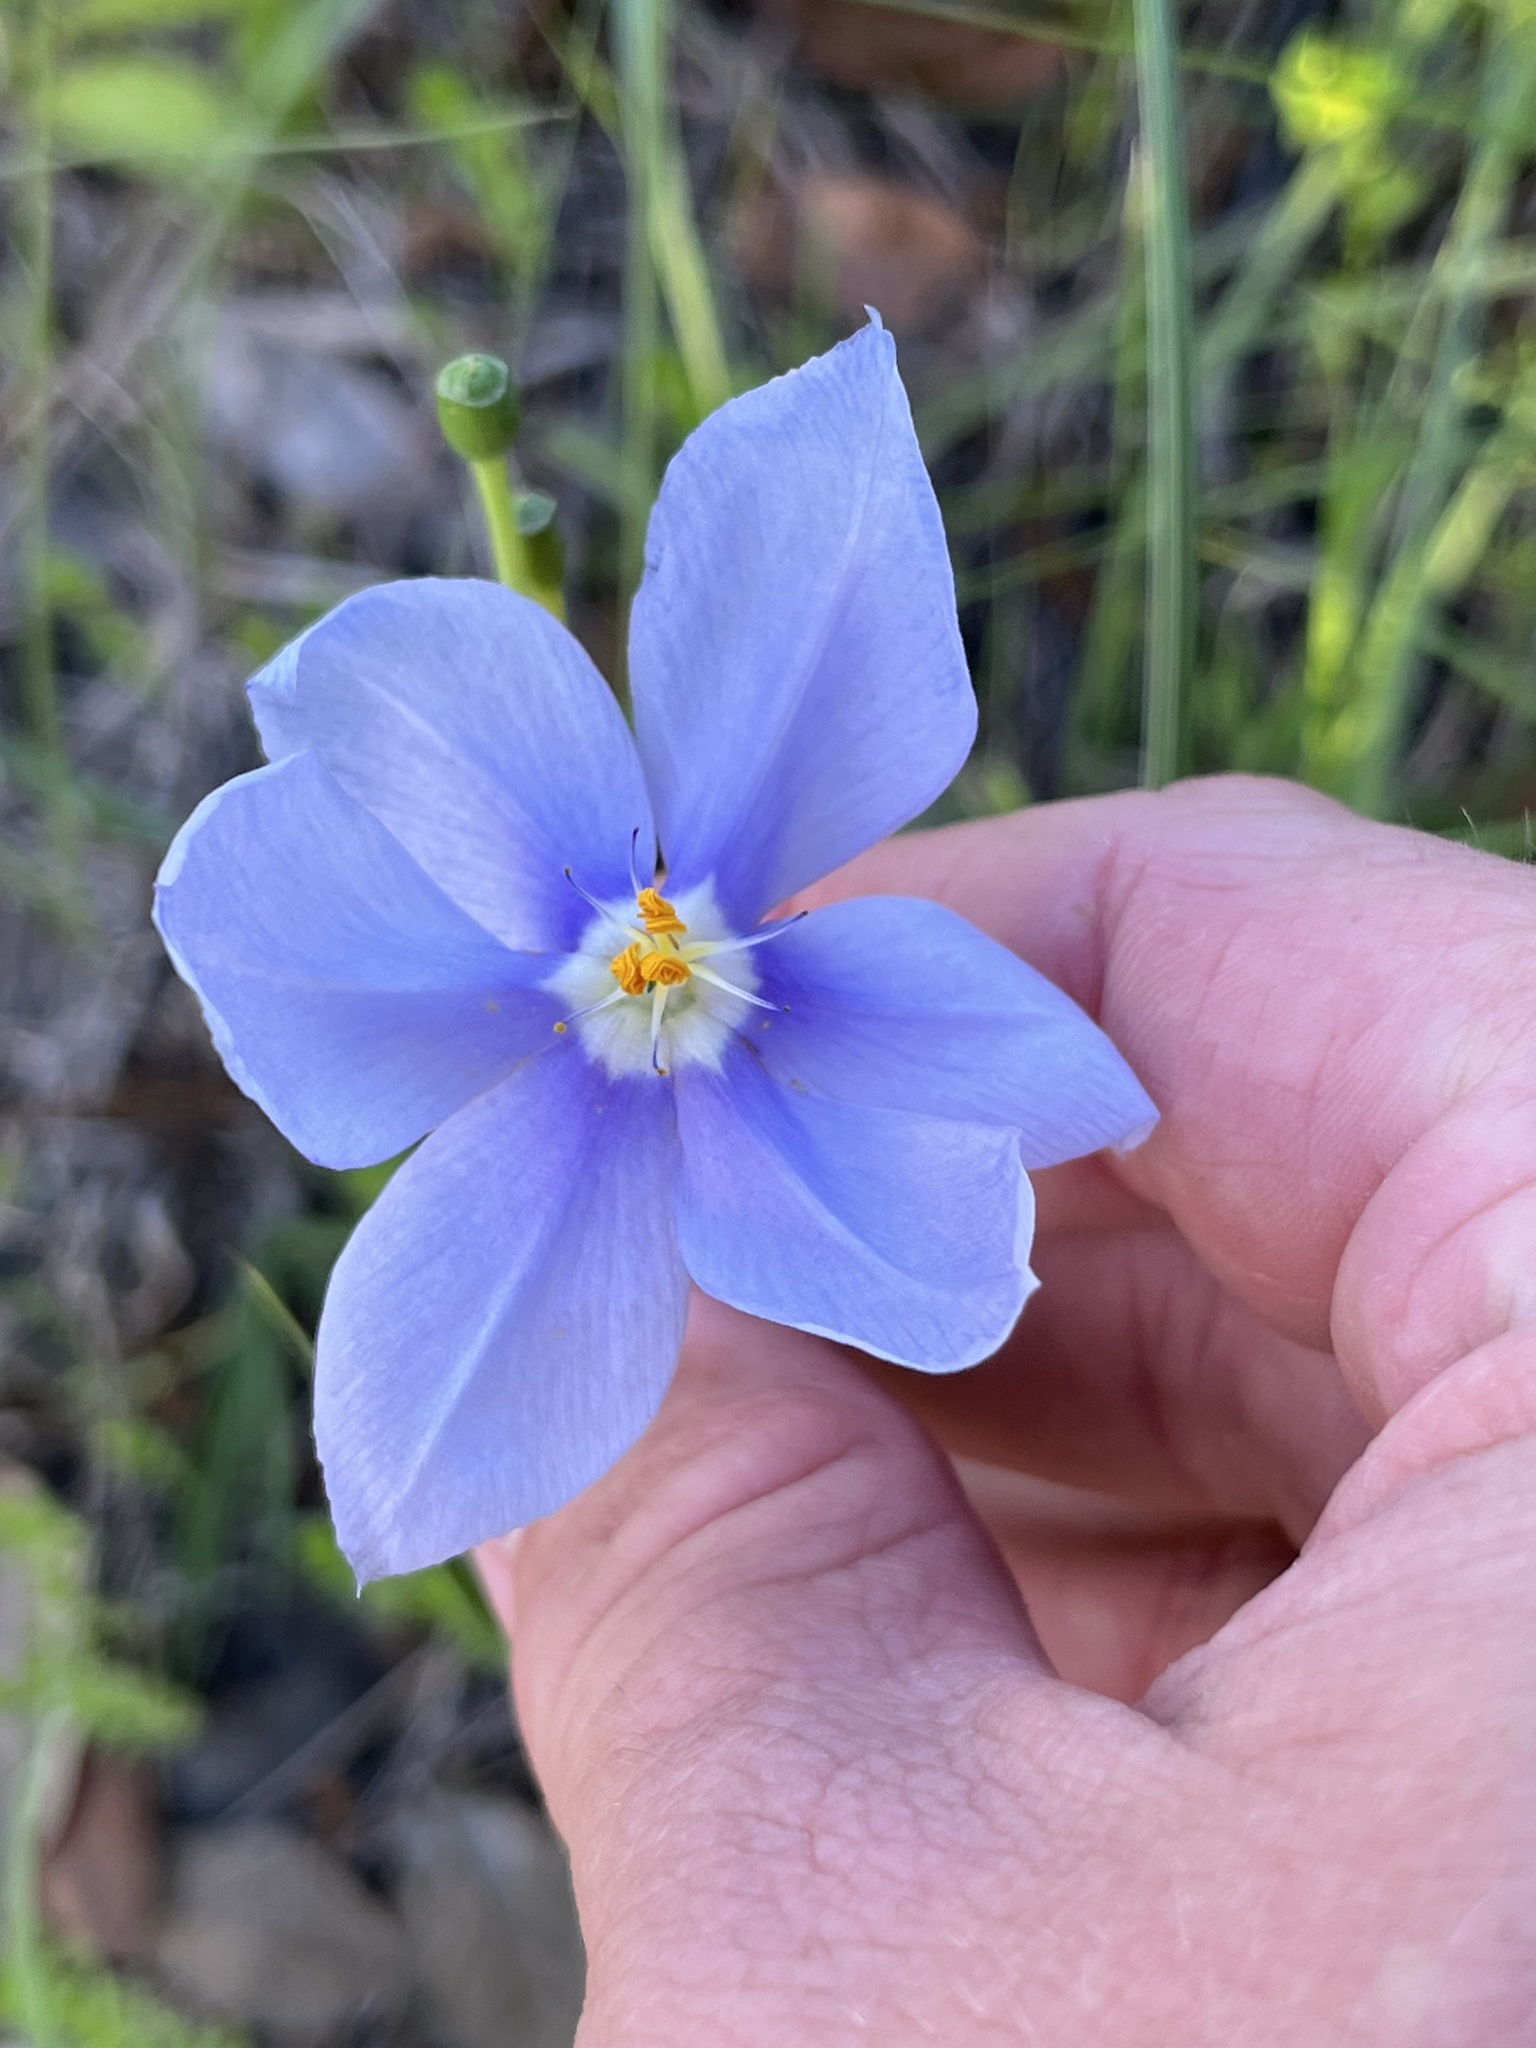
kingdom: Plantae
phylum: Tracheophyta
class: Liliopsida
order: Asparagales
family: Iridaceae
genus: Nemastylis
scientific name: Nemastylis geminiflora
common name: Prairie celestial
